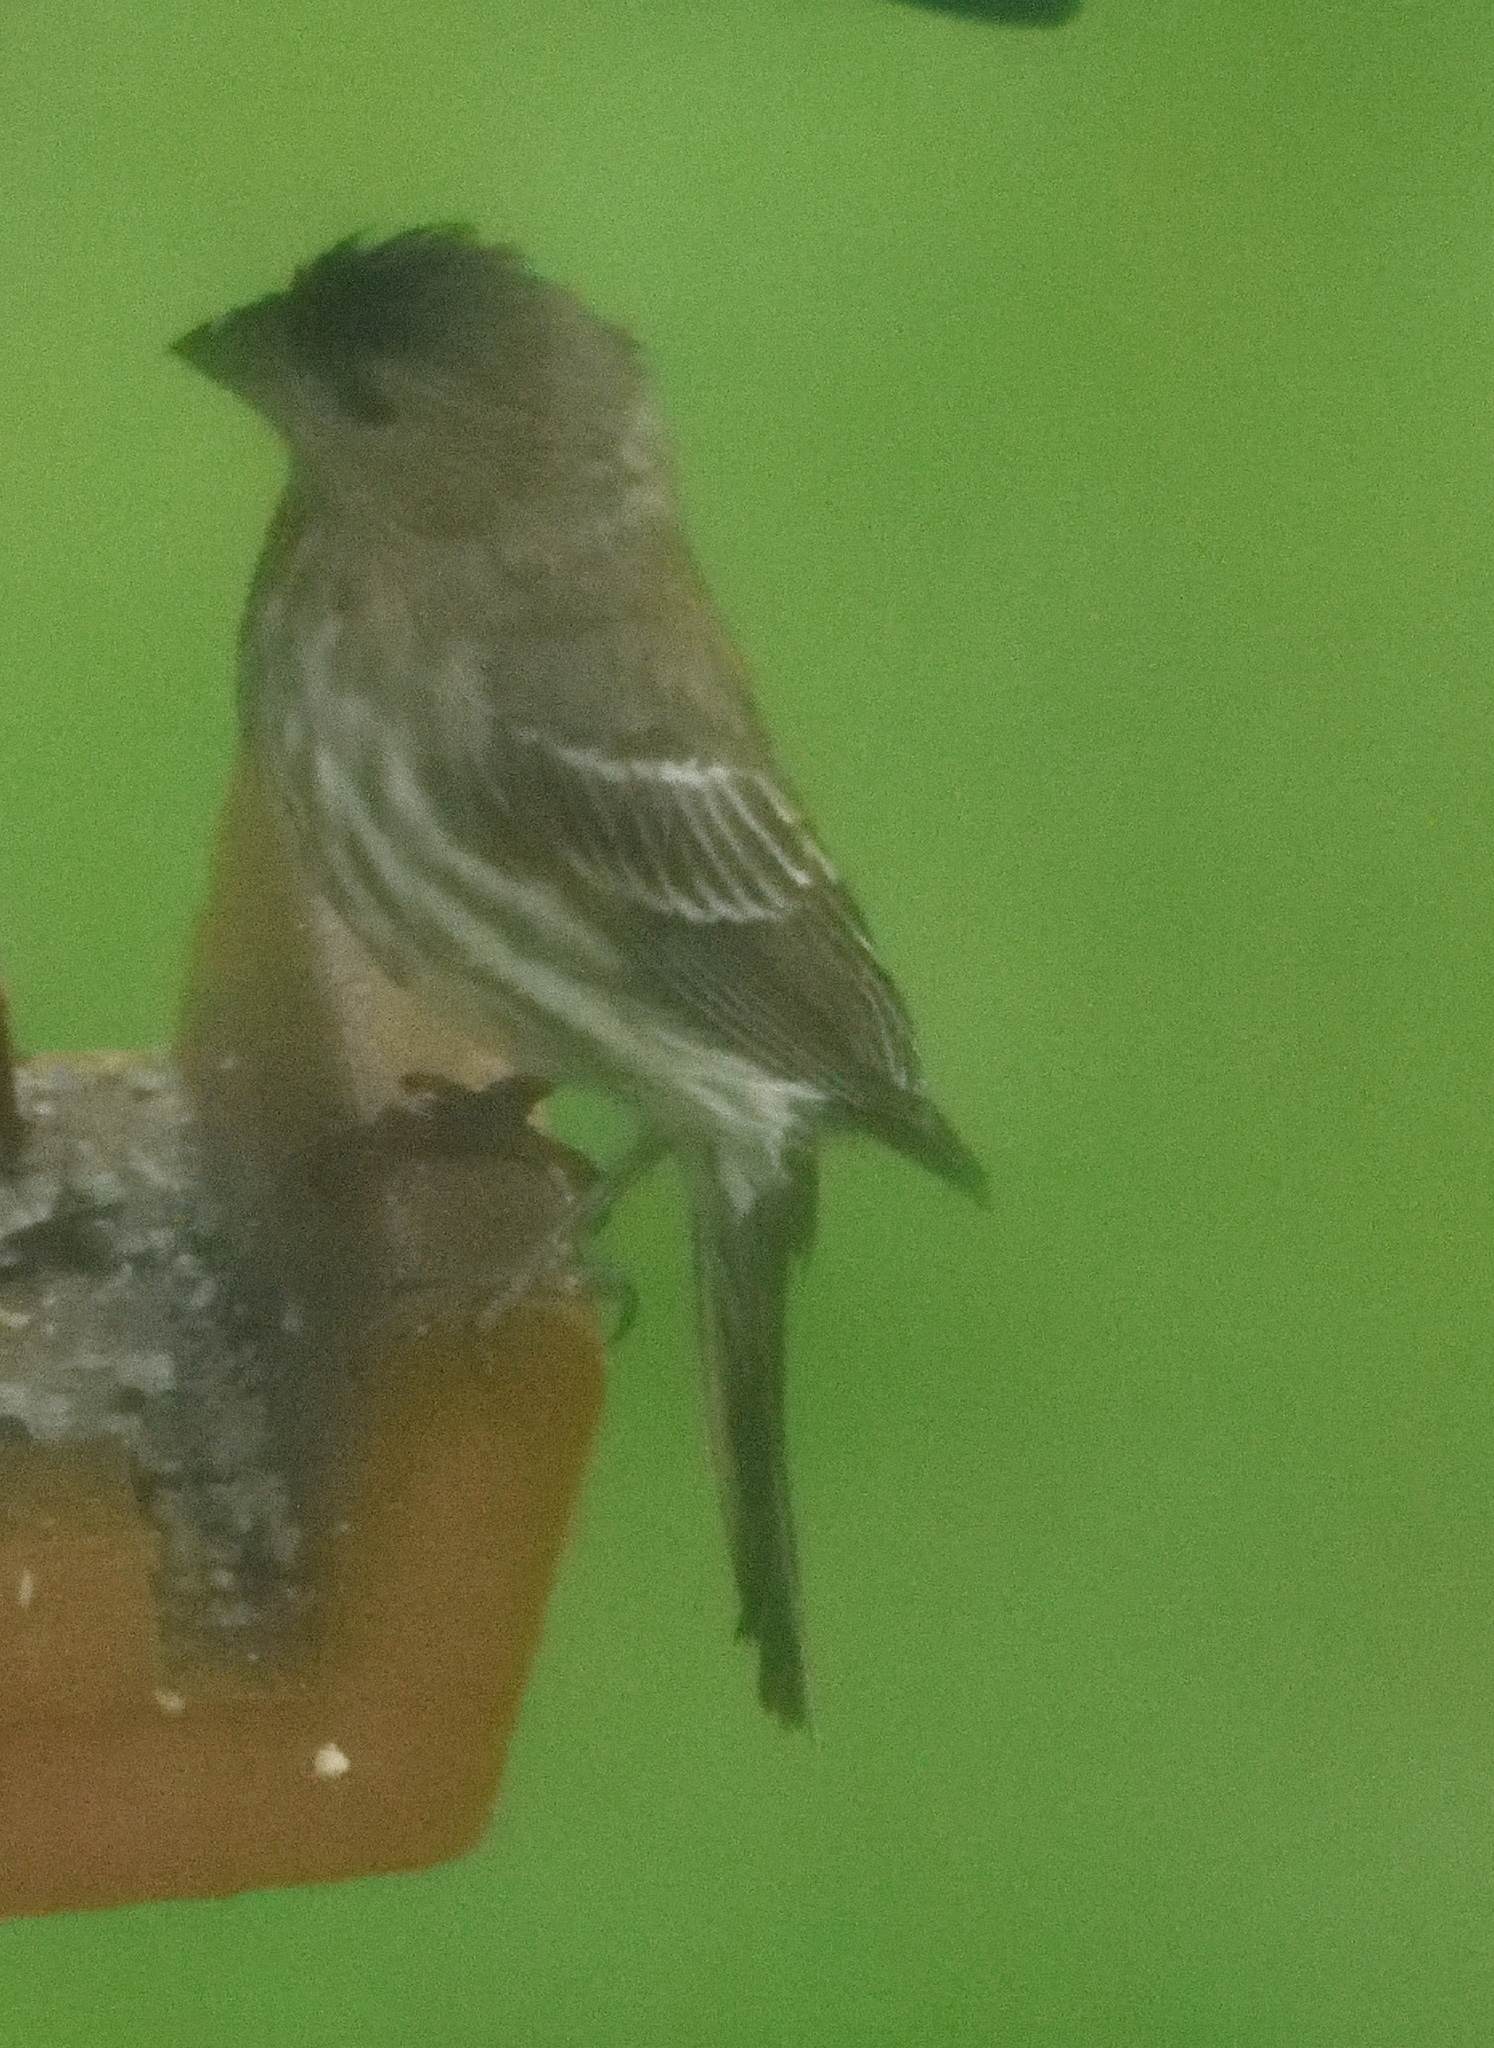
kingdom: Animalia
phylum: Chordata
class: Aves
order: Passeriformes
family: Fringillidae
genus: Haemorhous
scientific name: Haemorhous mexicanus
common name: House finch
